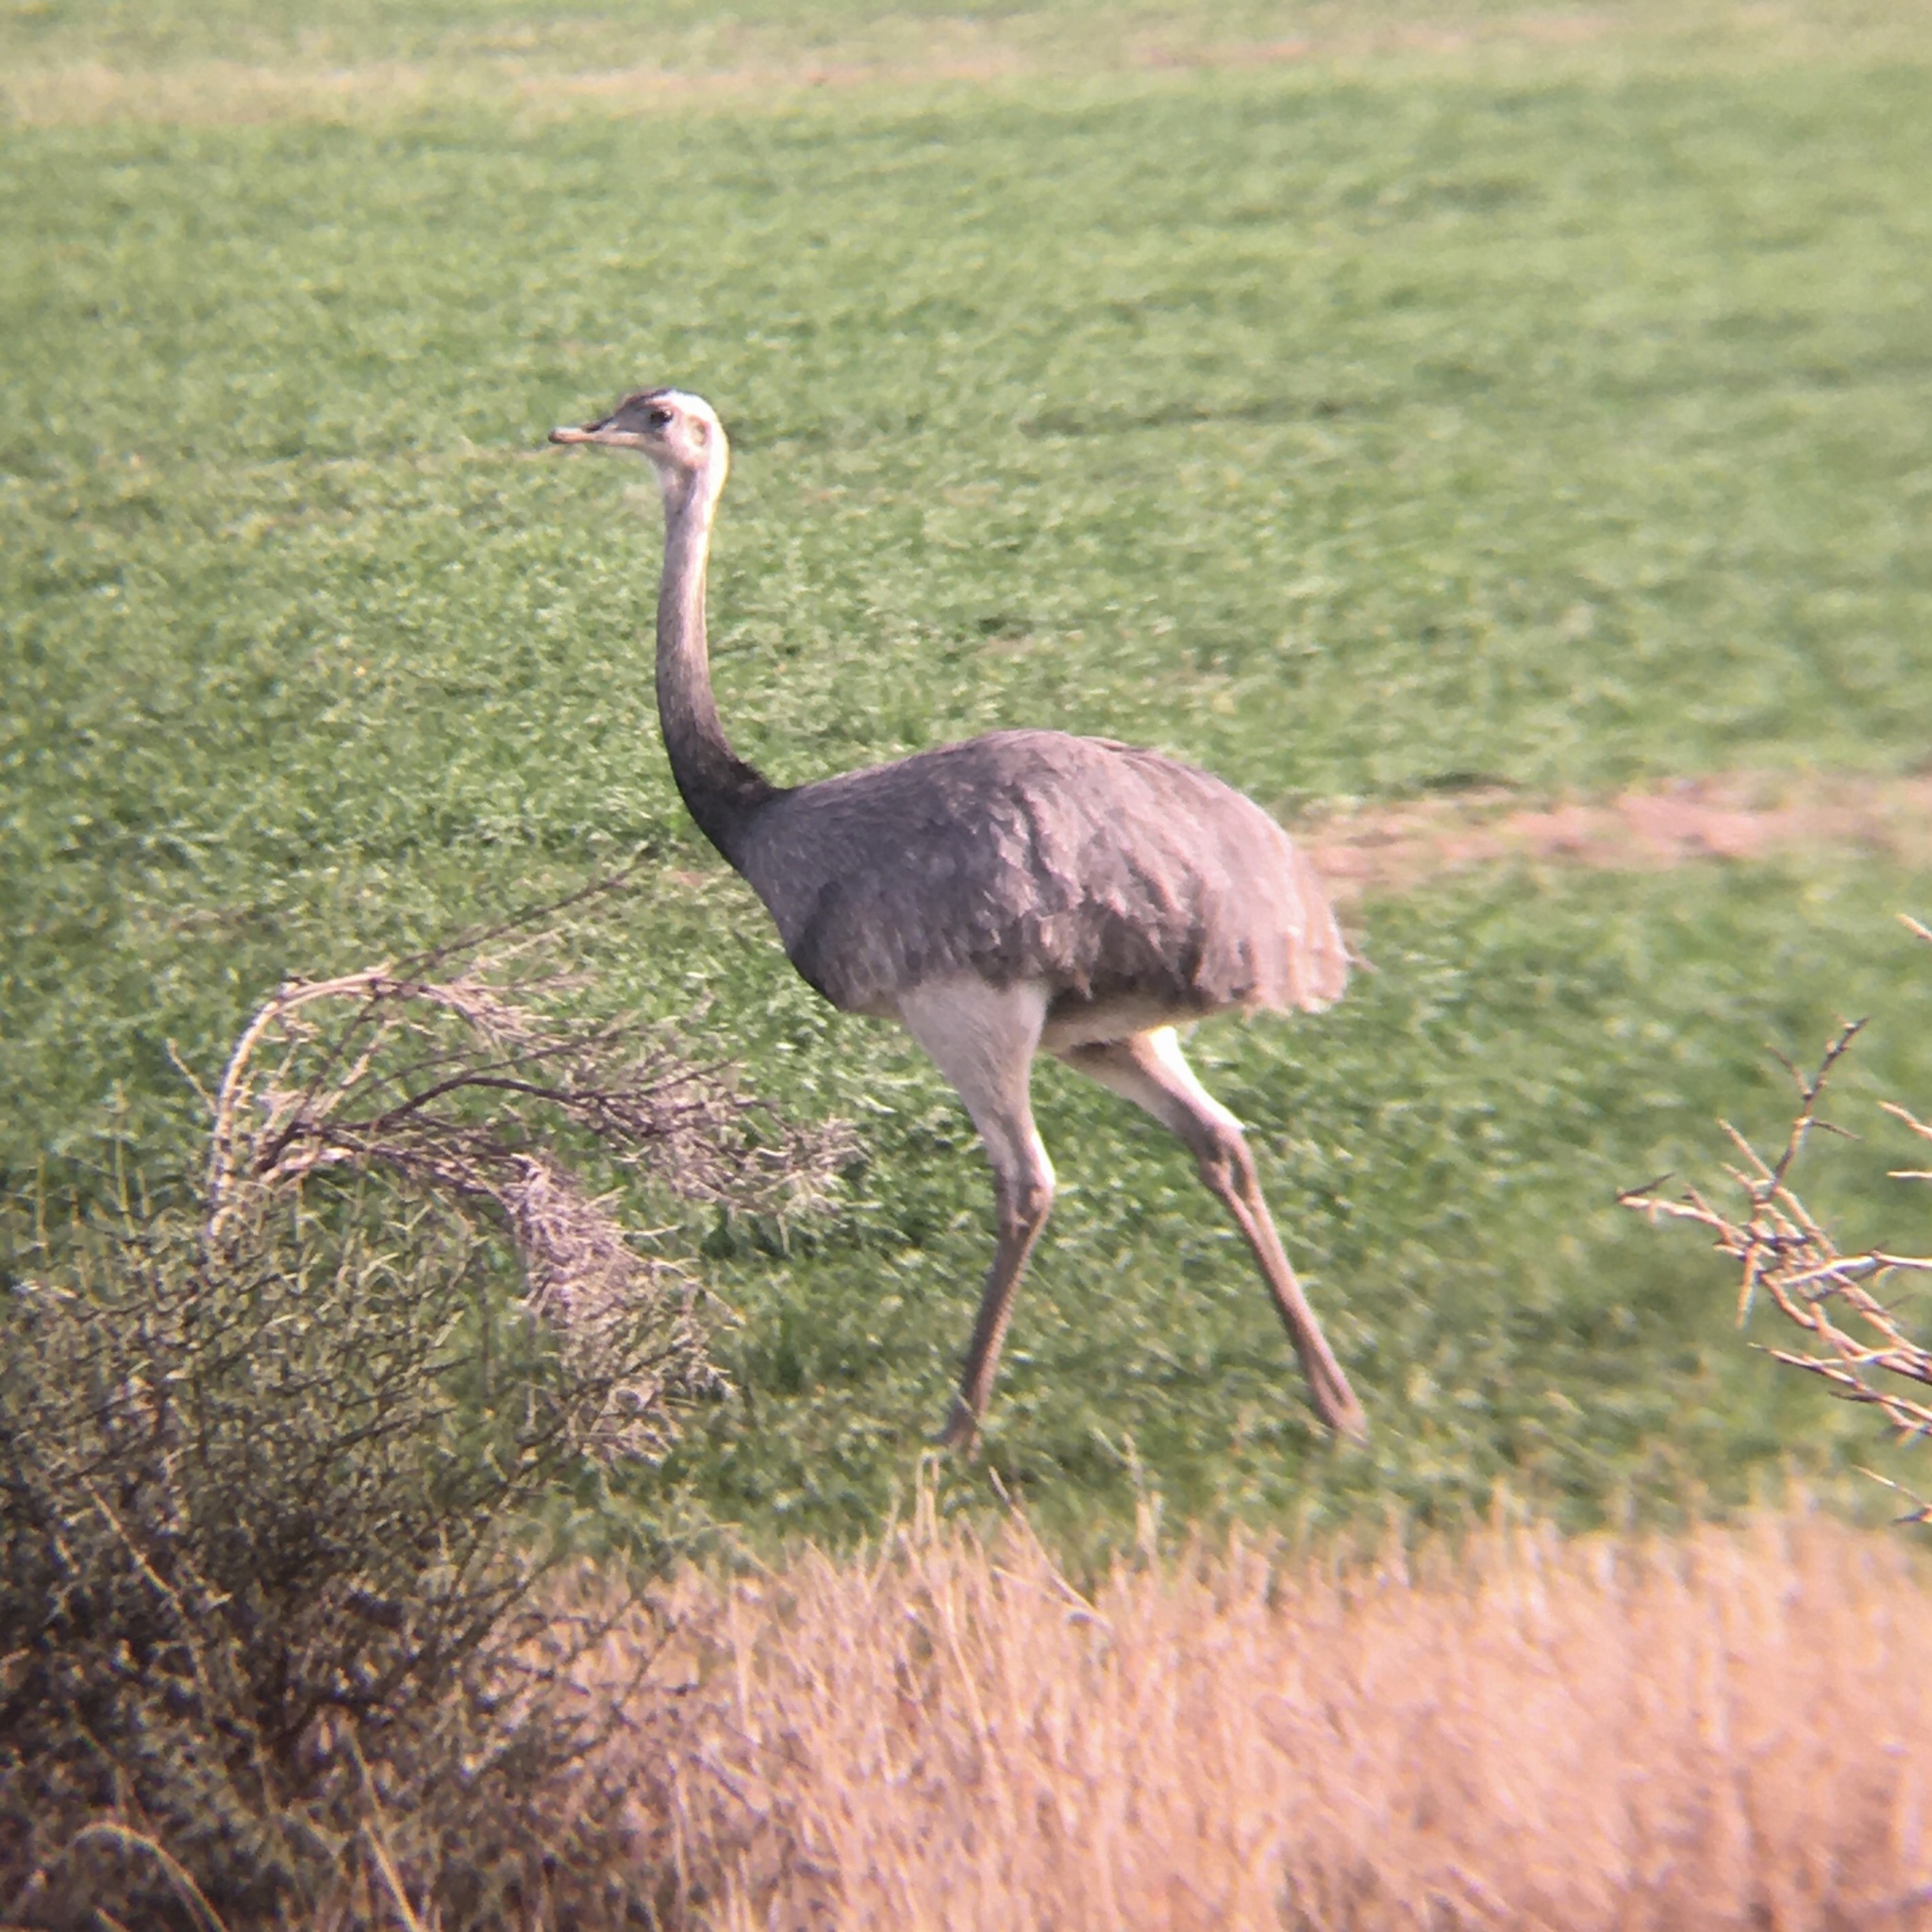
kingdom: Animalia
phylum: Chordata
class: Aves
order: Rheiformes
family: Rheidae
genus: Rhea
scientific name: Rhea americana
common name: Greater rhea
